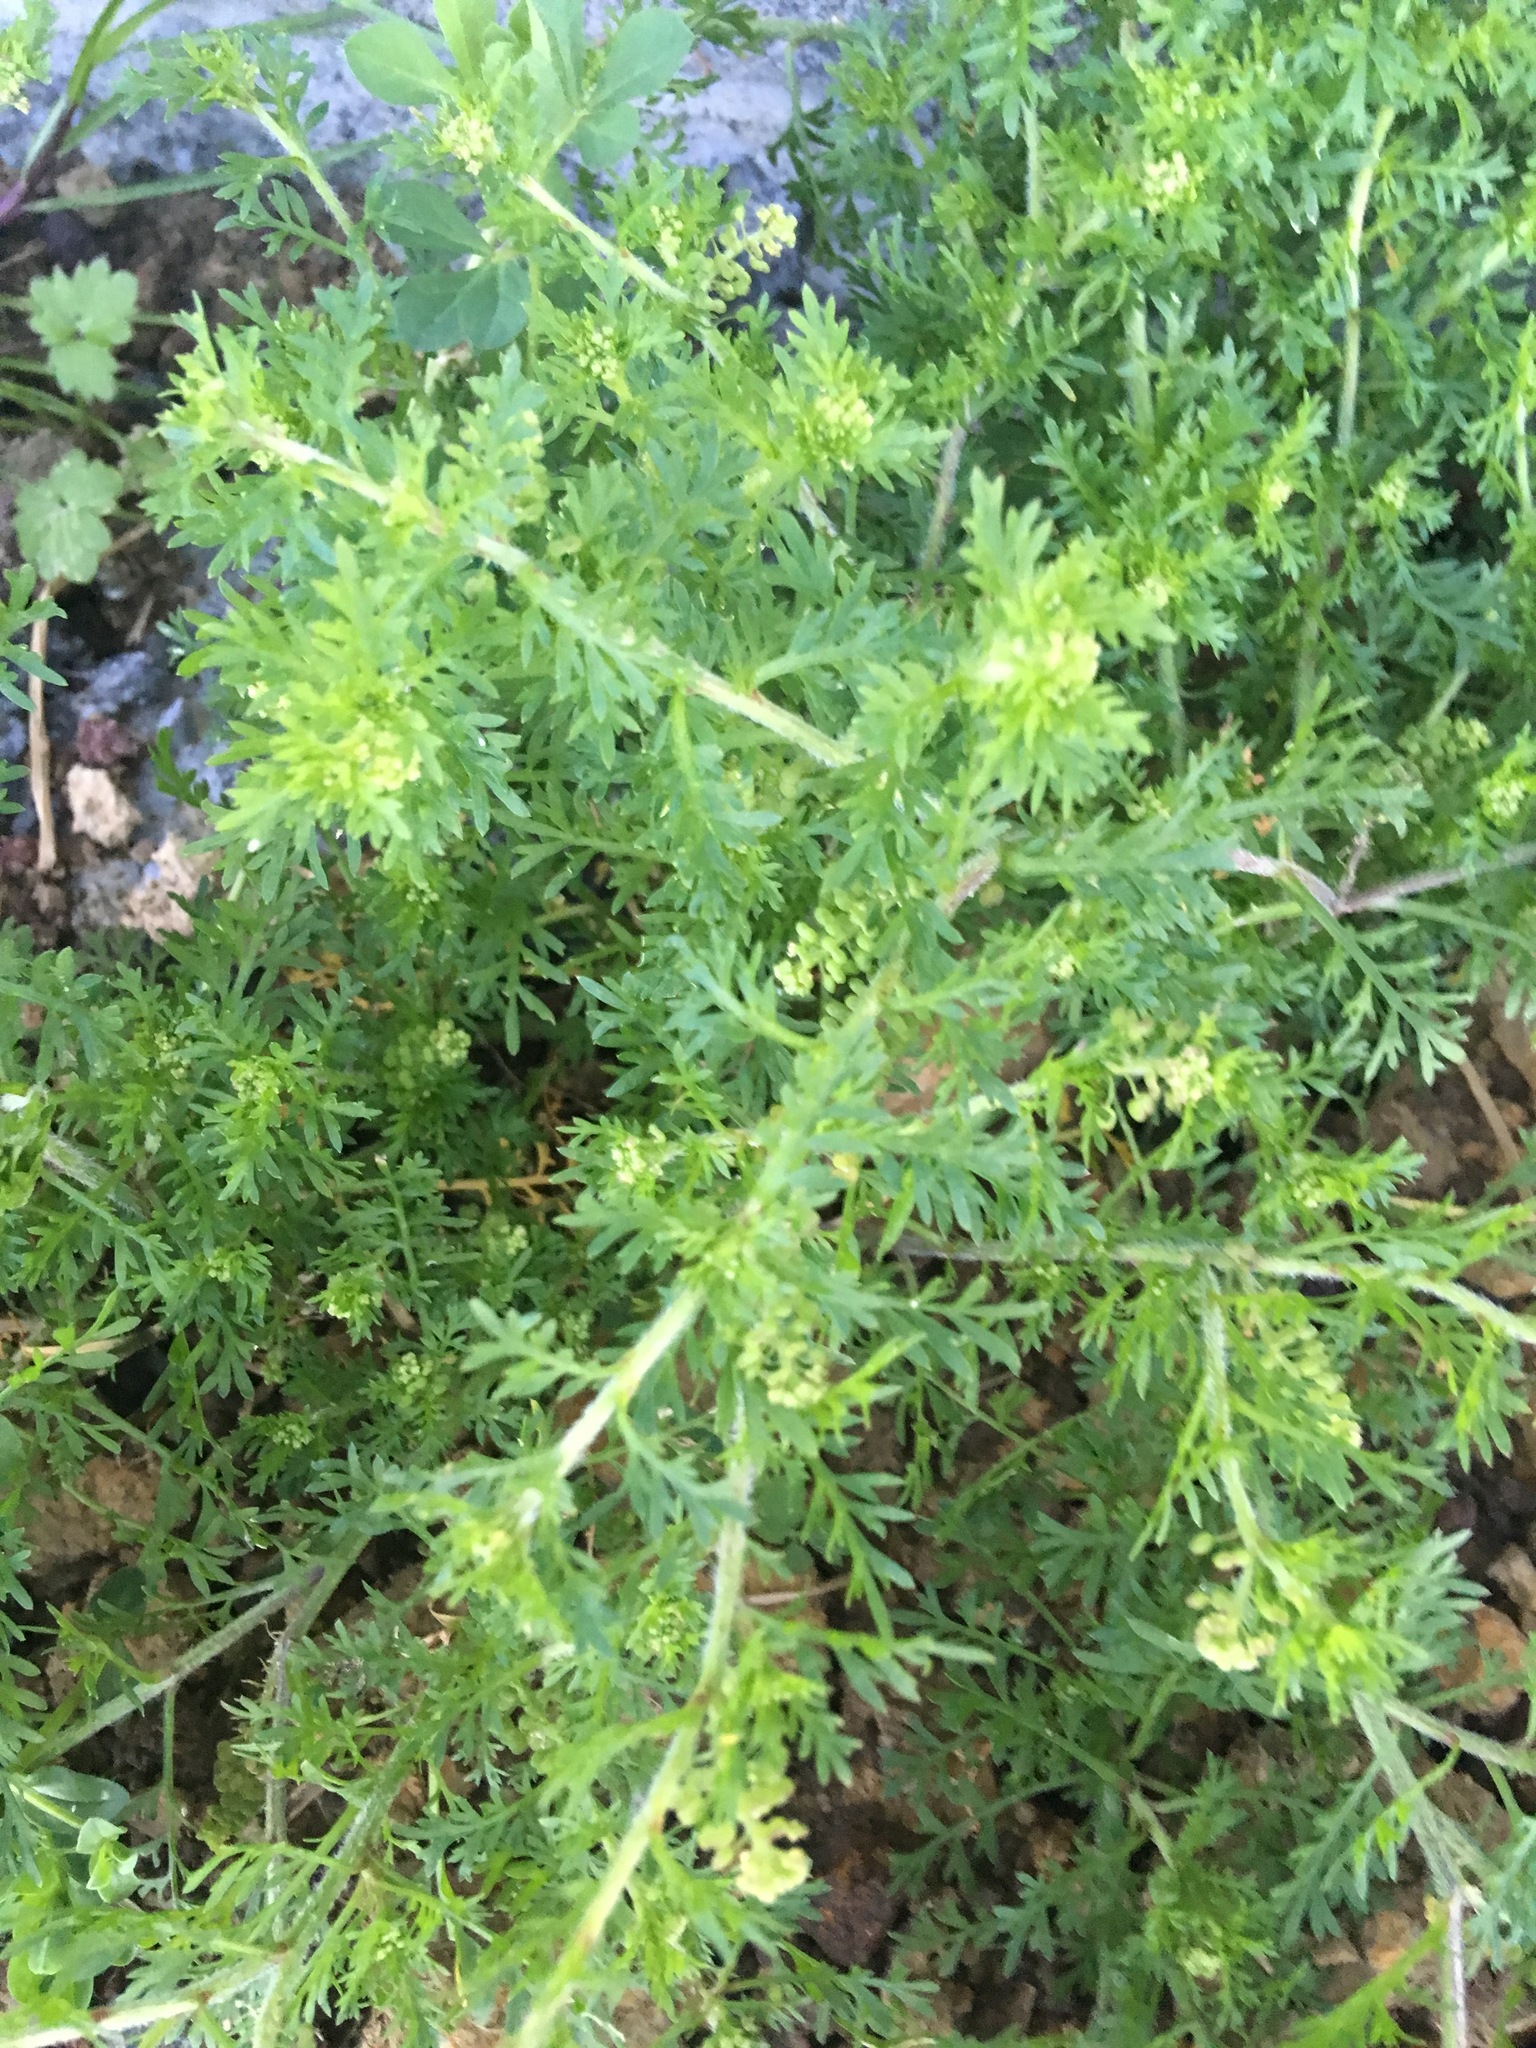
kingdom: Plantae
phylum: Tracheophyta
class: Magnoliopsida
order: Brassicales
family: Brassicaceae
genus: Lepidium
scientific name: Lepidium didymum
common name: Lesser swinecress
